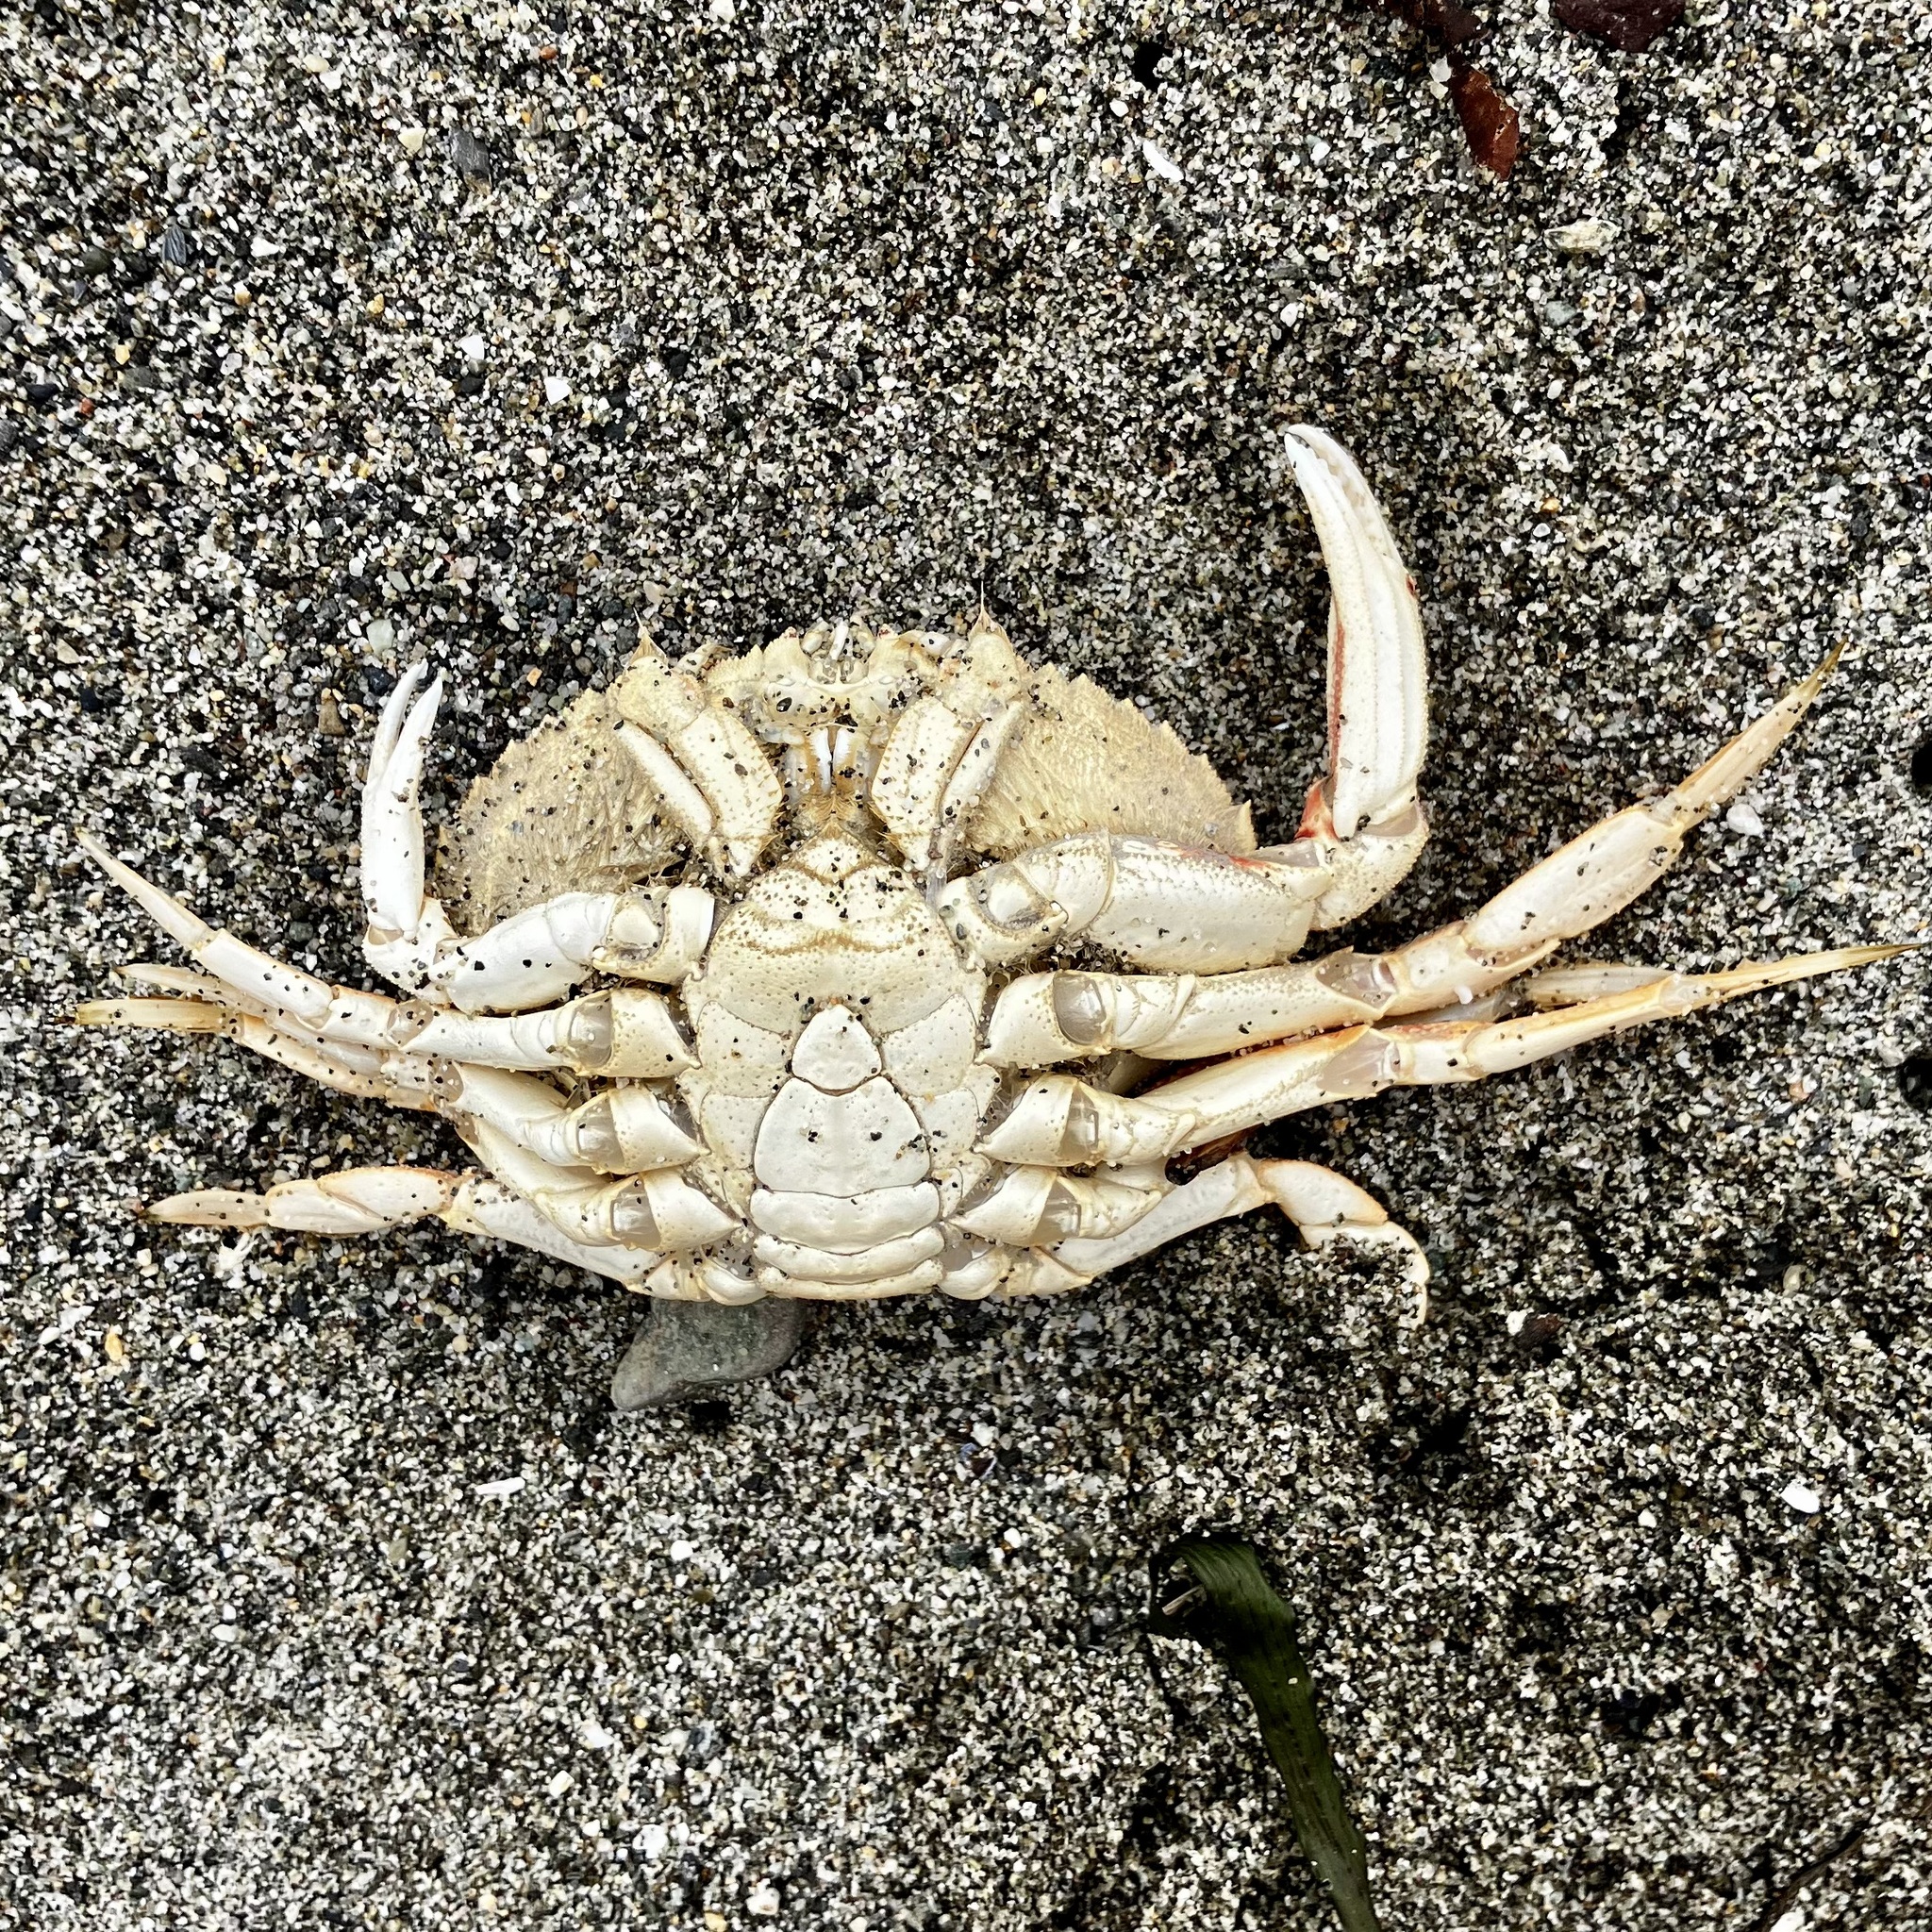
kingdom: Animalia
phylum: Arthropoda
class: Malacostraca
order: Decapoda
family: Cancridae
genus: Metacarcinus
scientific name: Metacarcinus magister
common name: Californian crab
